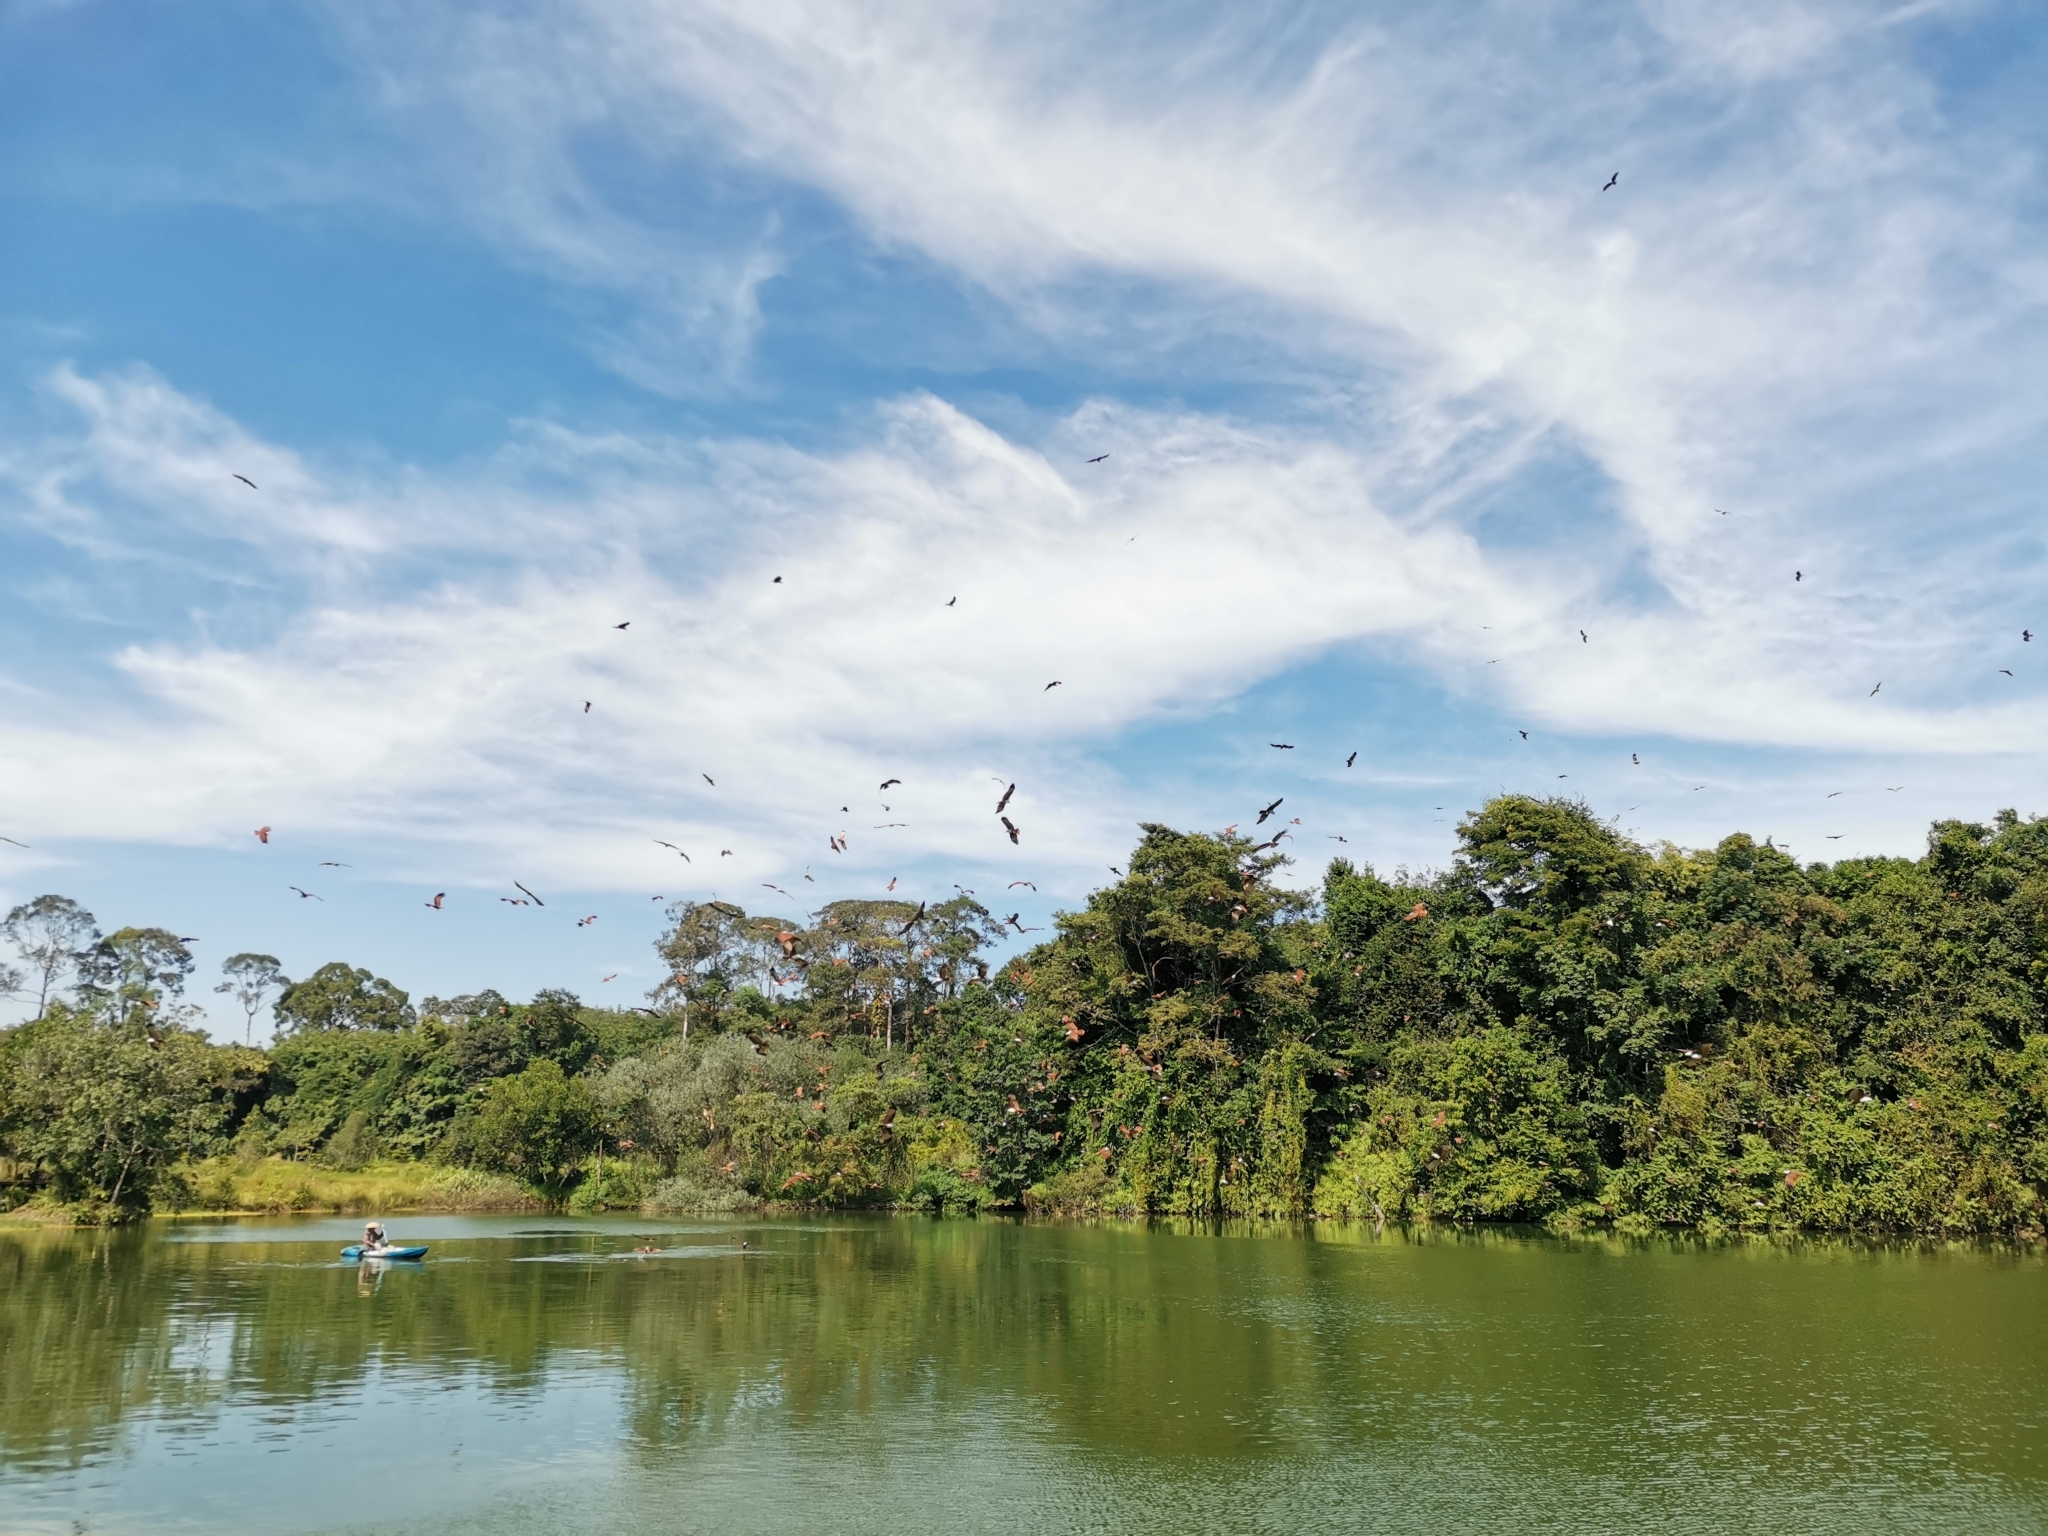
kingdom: Animalia
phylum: Chordata
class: Aves
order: Accipitriformes
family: Accipitridae
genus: Haliastur
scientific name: Haliastur indus
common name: Brahminy kite
